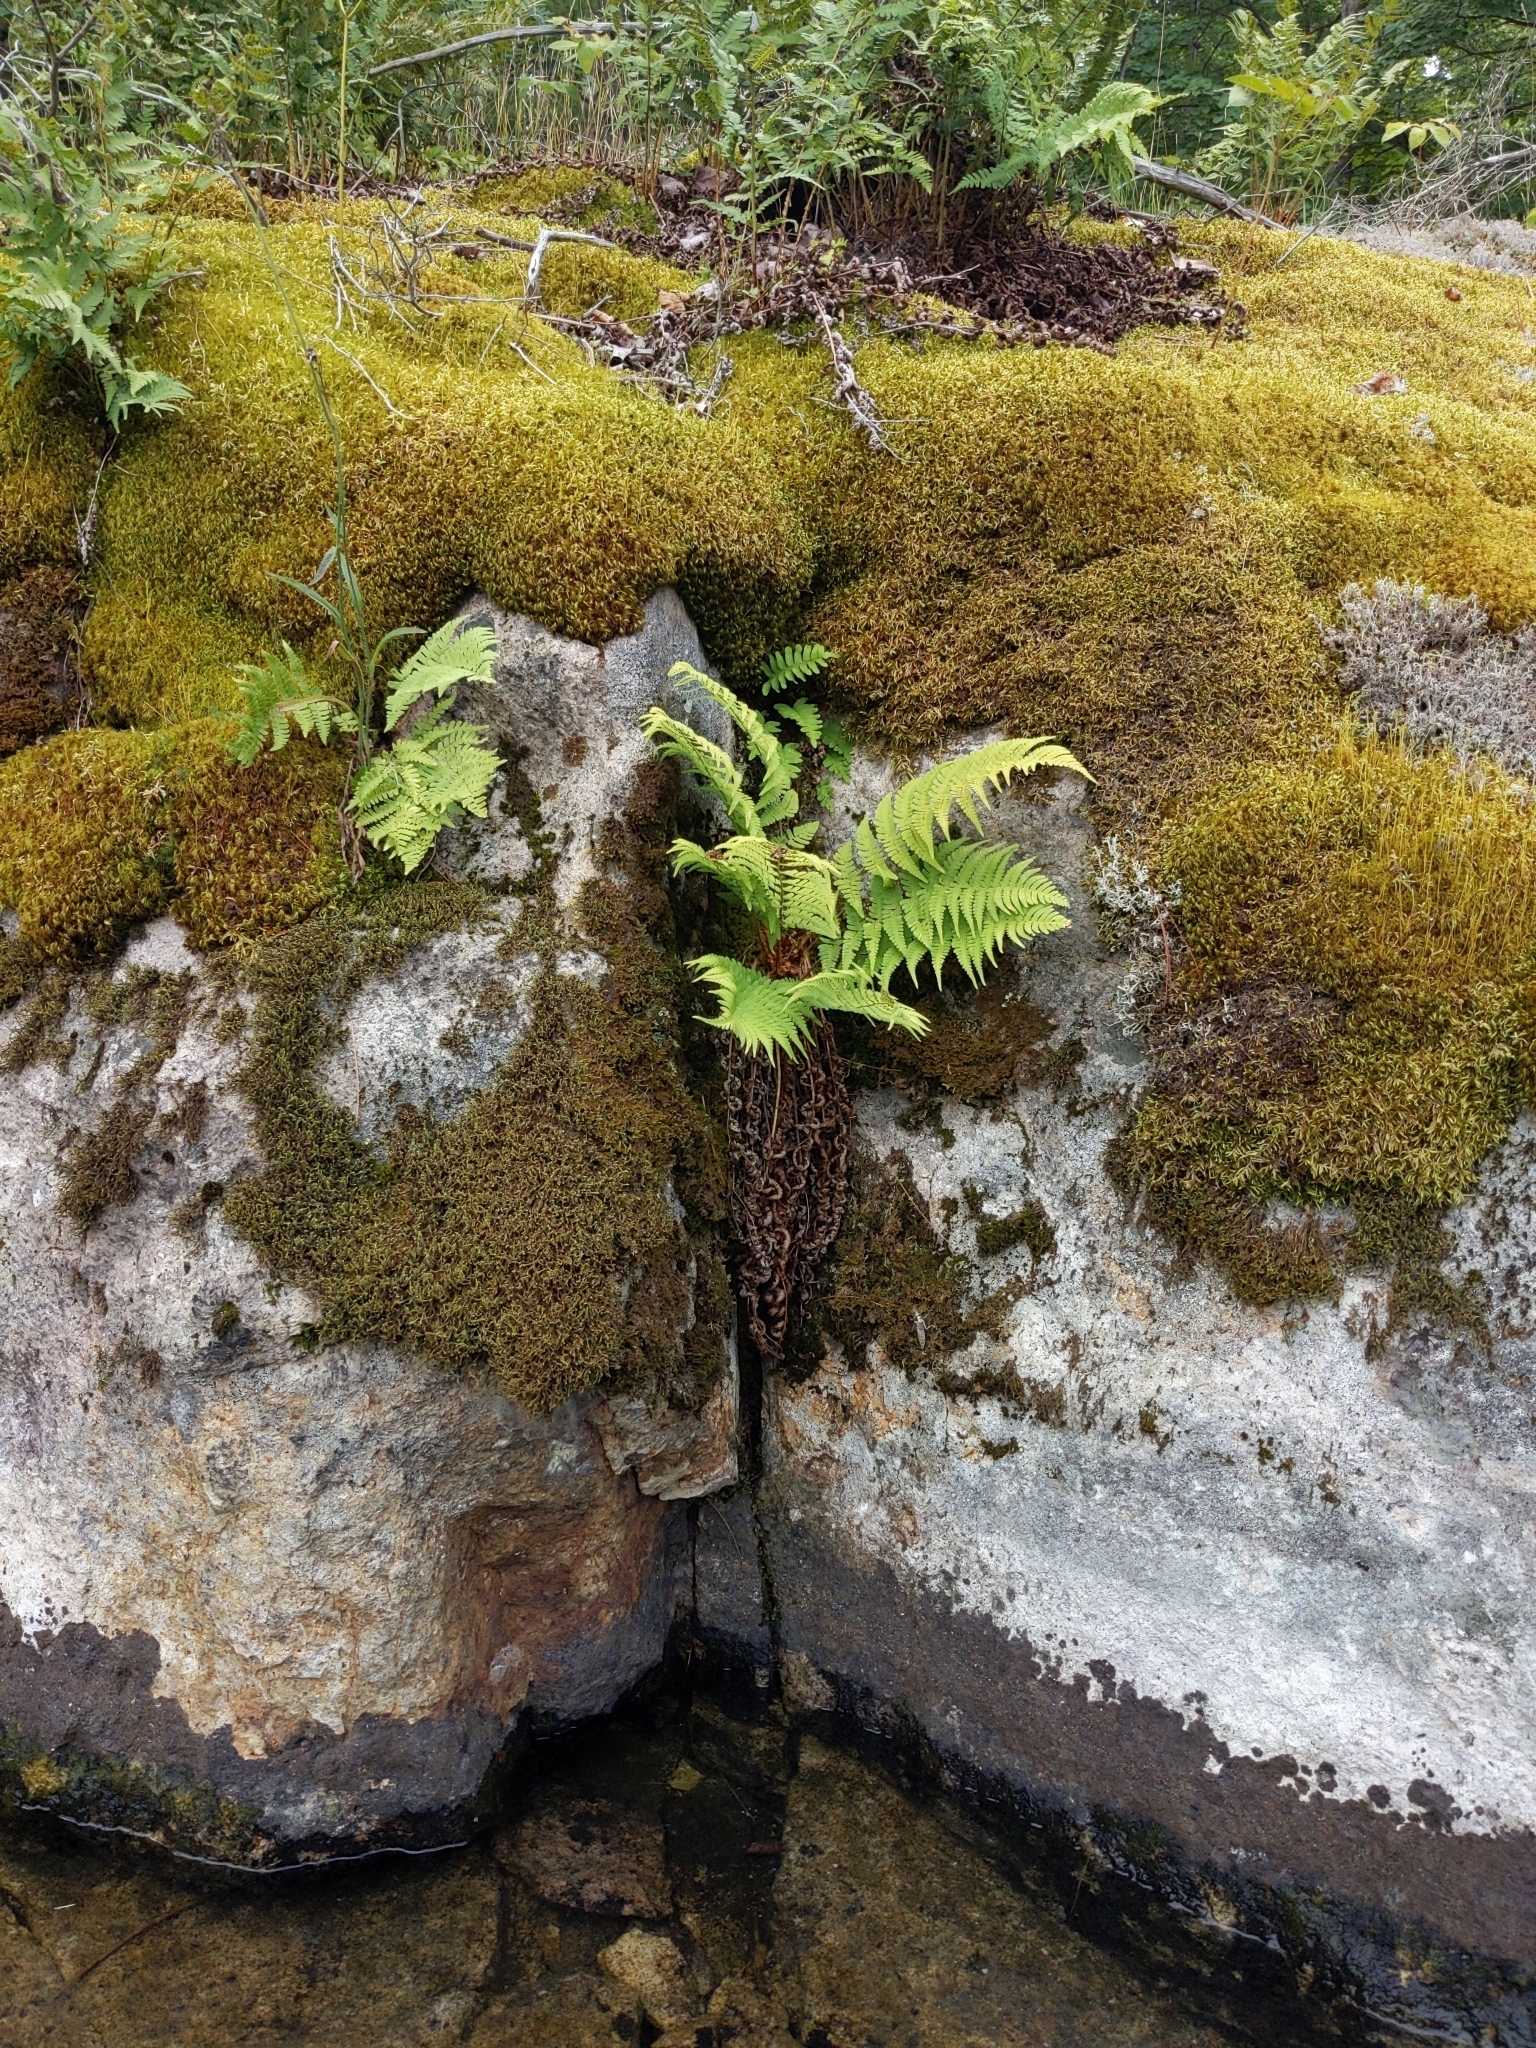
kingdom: Plantae
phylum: Tracheophyta
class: Polypodiopsida
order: Polypodiales
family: Dryopteridaceae
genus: Dryopteris
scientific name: Dryopteris marginalis
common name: Marginal wood fern
